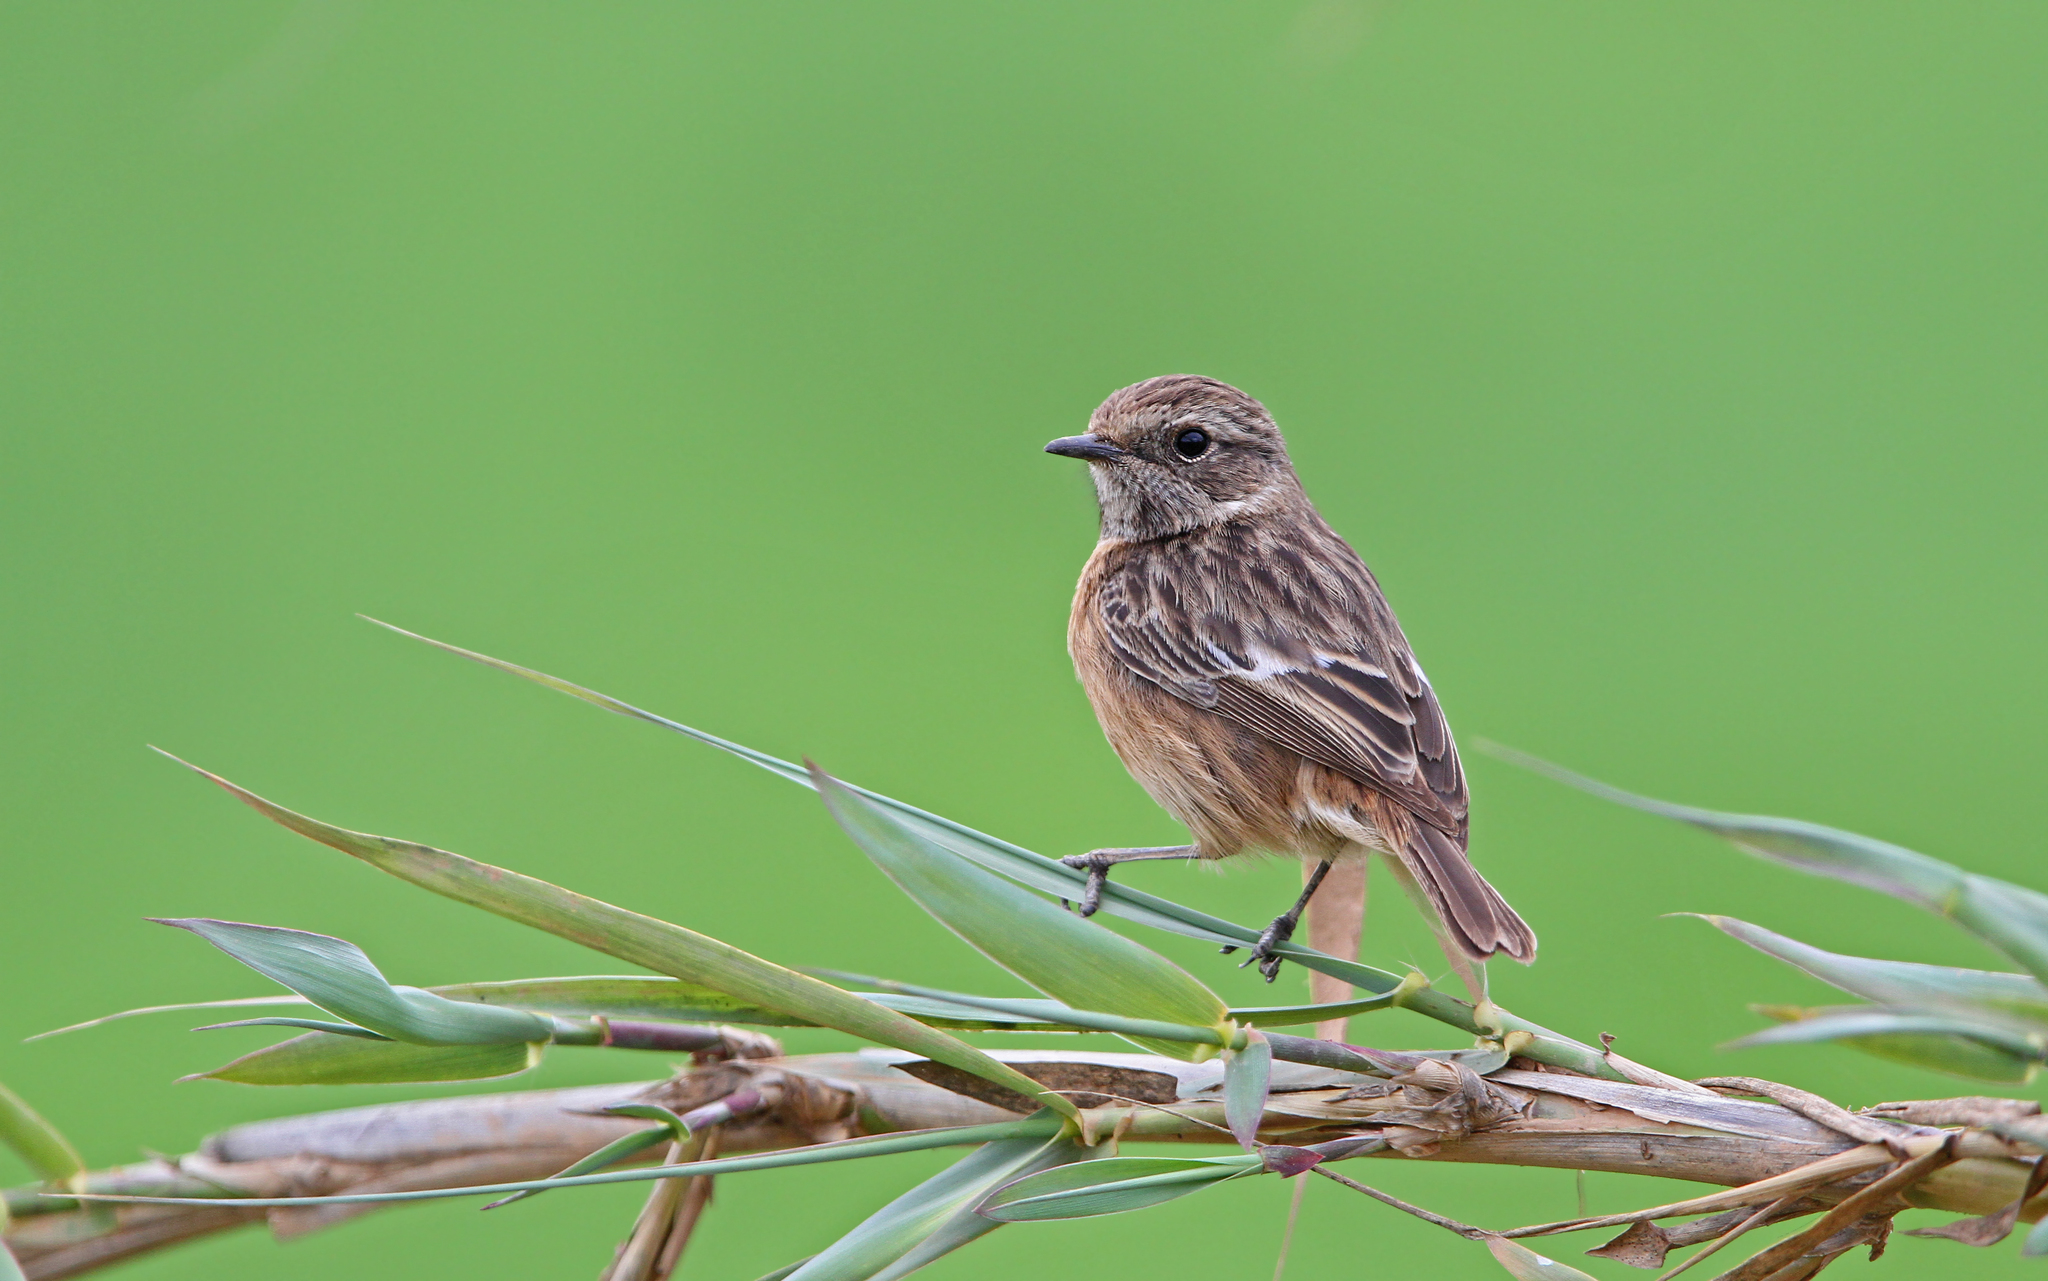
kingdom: Animalia
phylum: Chordata
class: Aves
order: Passeriformes
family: Muscicapidae
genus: Saxicola
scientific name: Saxicola rubicola
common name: European stonechat
